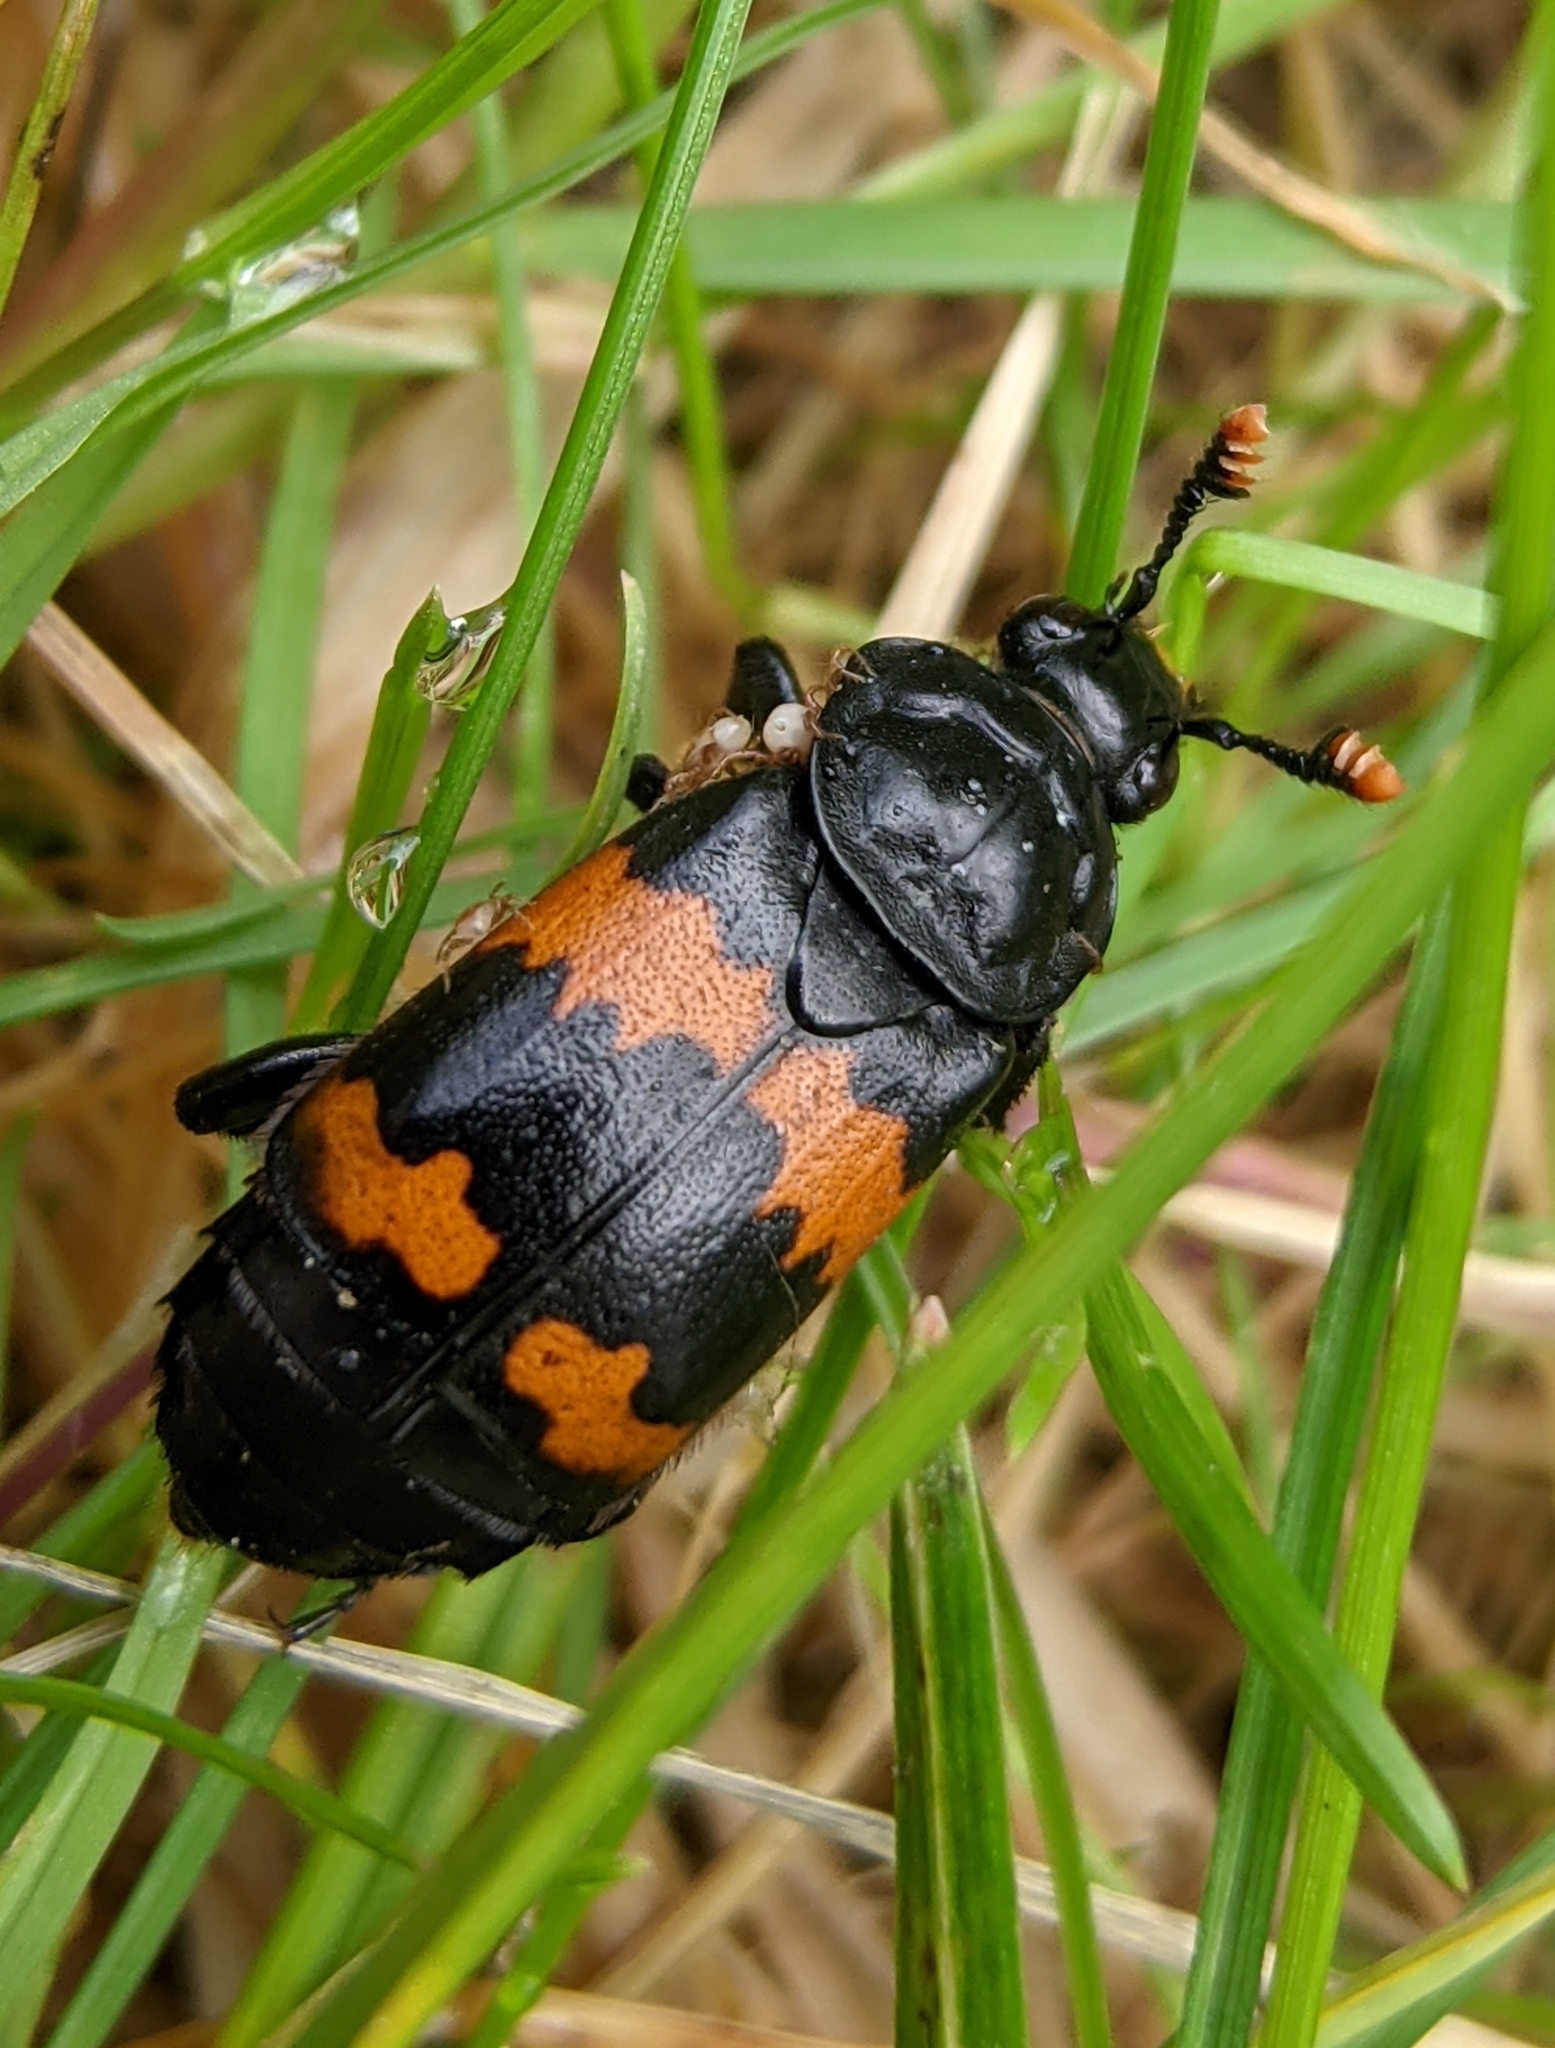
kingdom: Animalia
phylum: Arthropoda
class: Insecta
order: Coleoptera
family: Staphylinidae
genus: Nicrophorus
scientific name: Nicrophorus investigator
